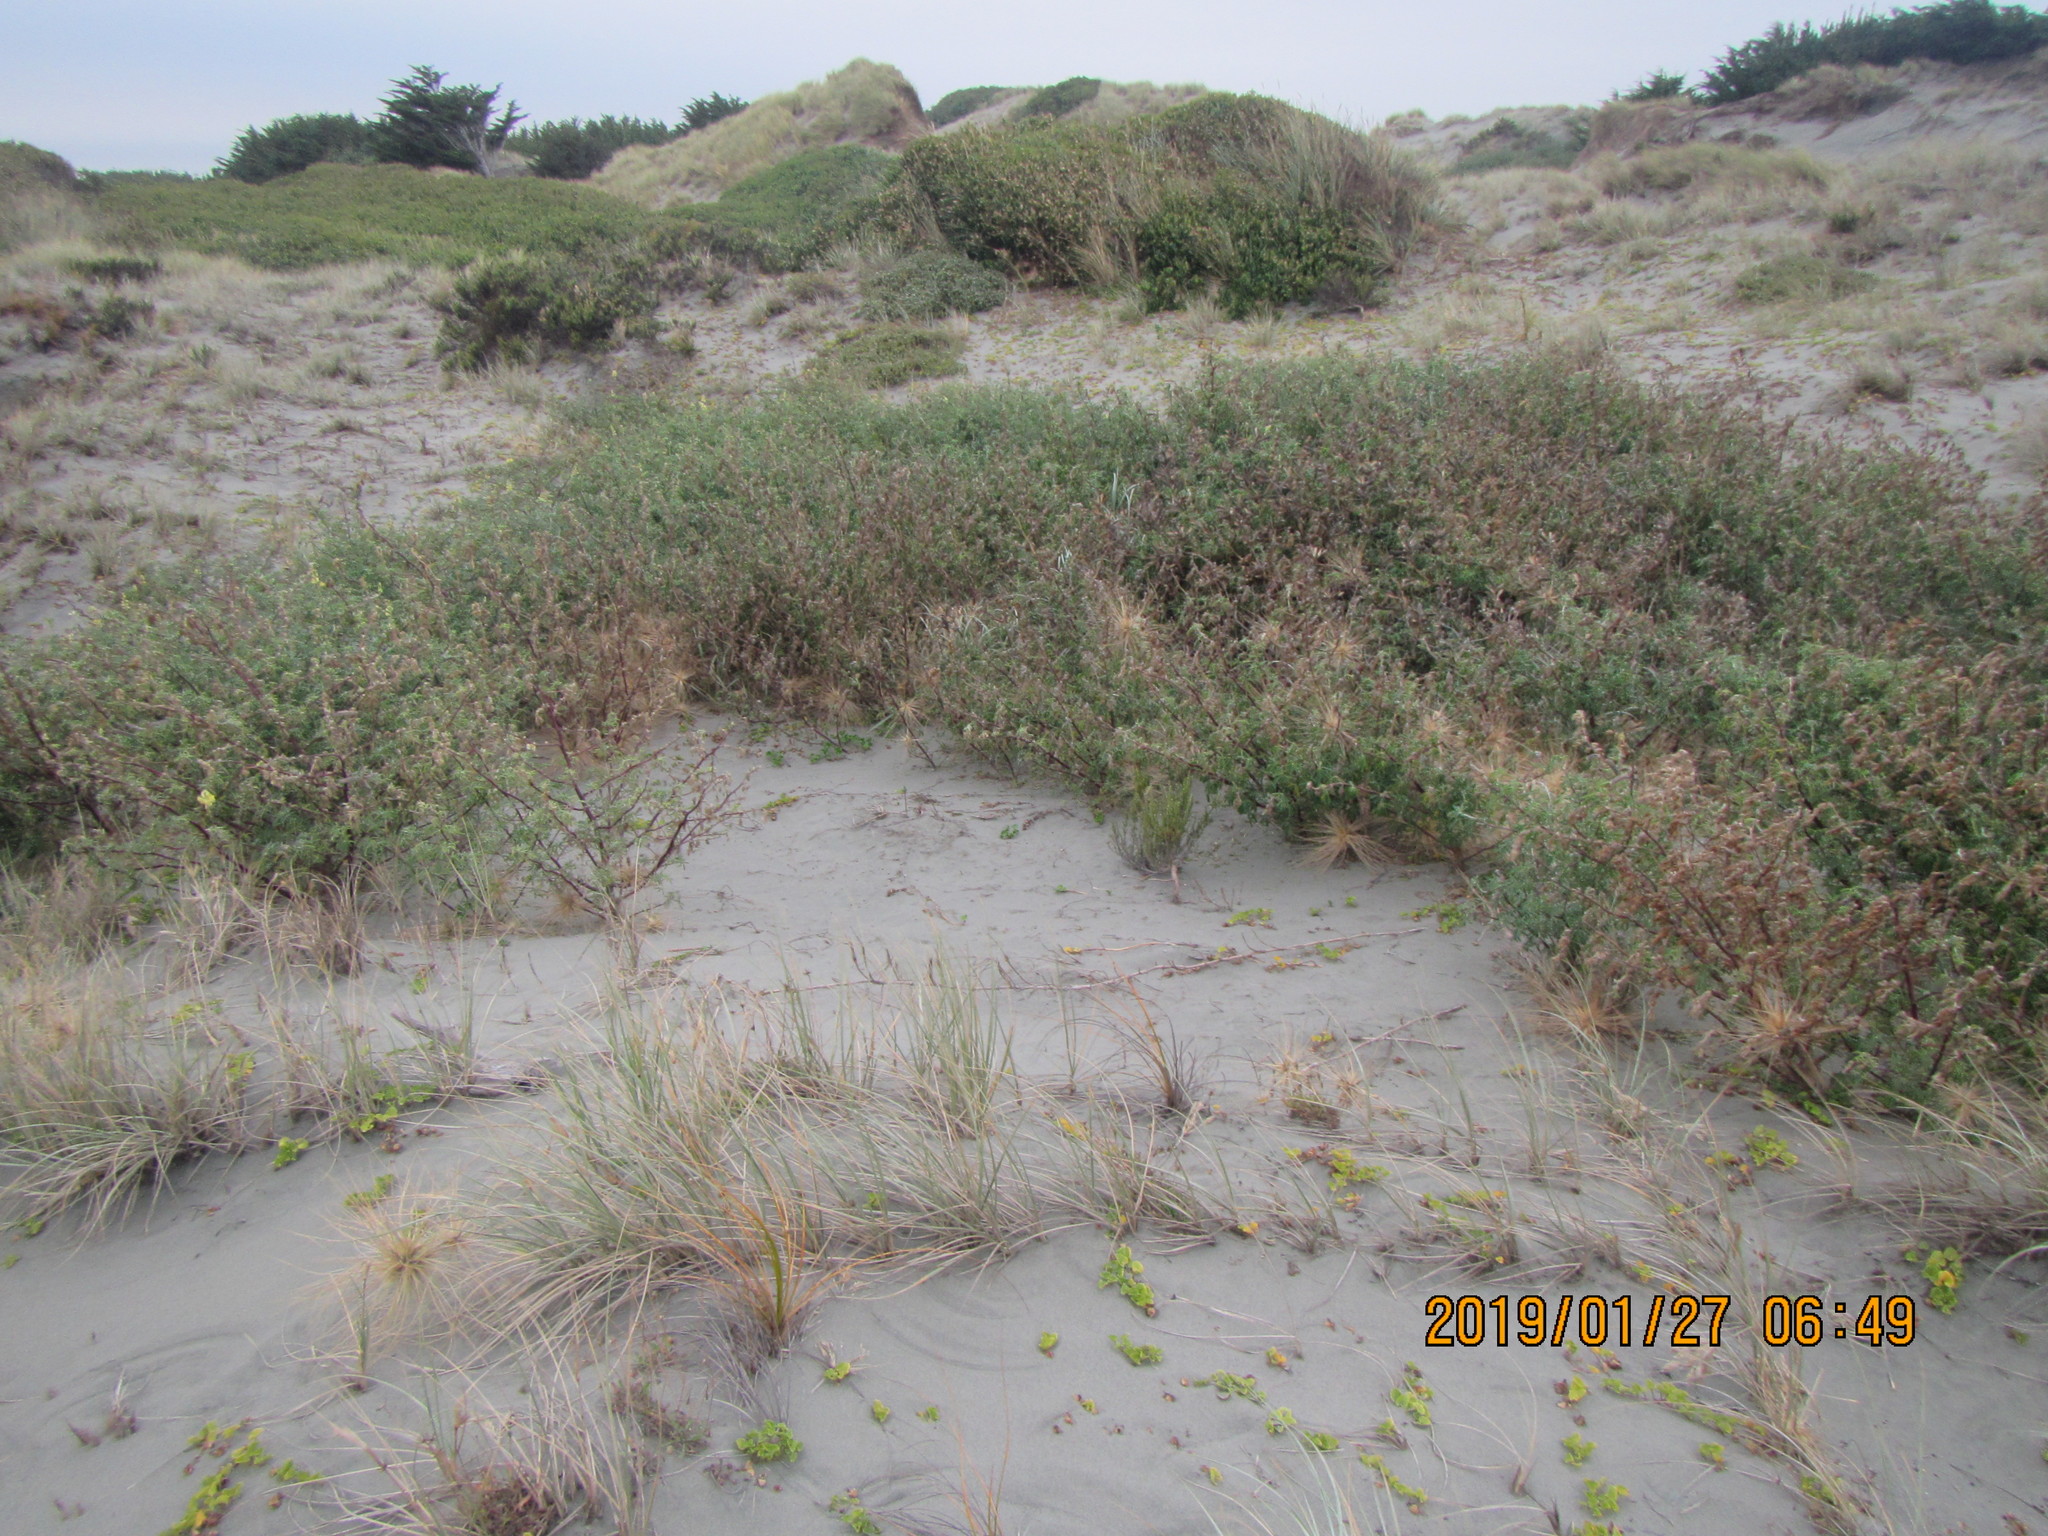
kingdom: Plantae
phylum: Tracheophyta
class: Magnoliopsida
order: Fabales
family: Fabaceae
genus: Lupinus
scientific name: Lupinus arboreus
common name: Yellow bush lupine
